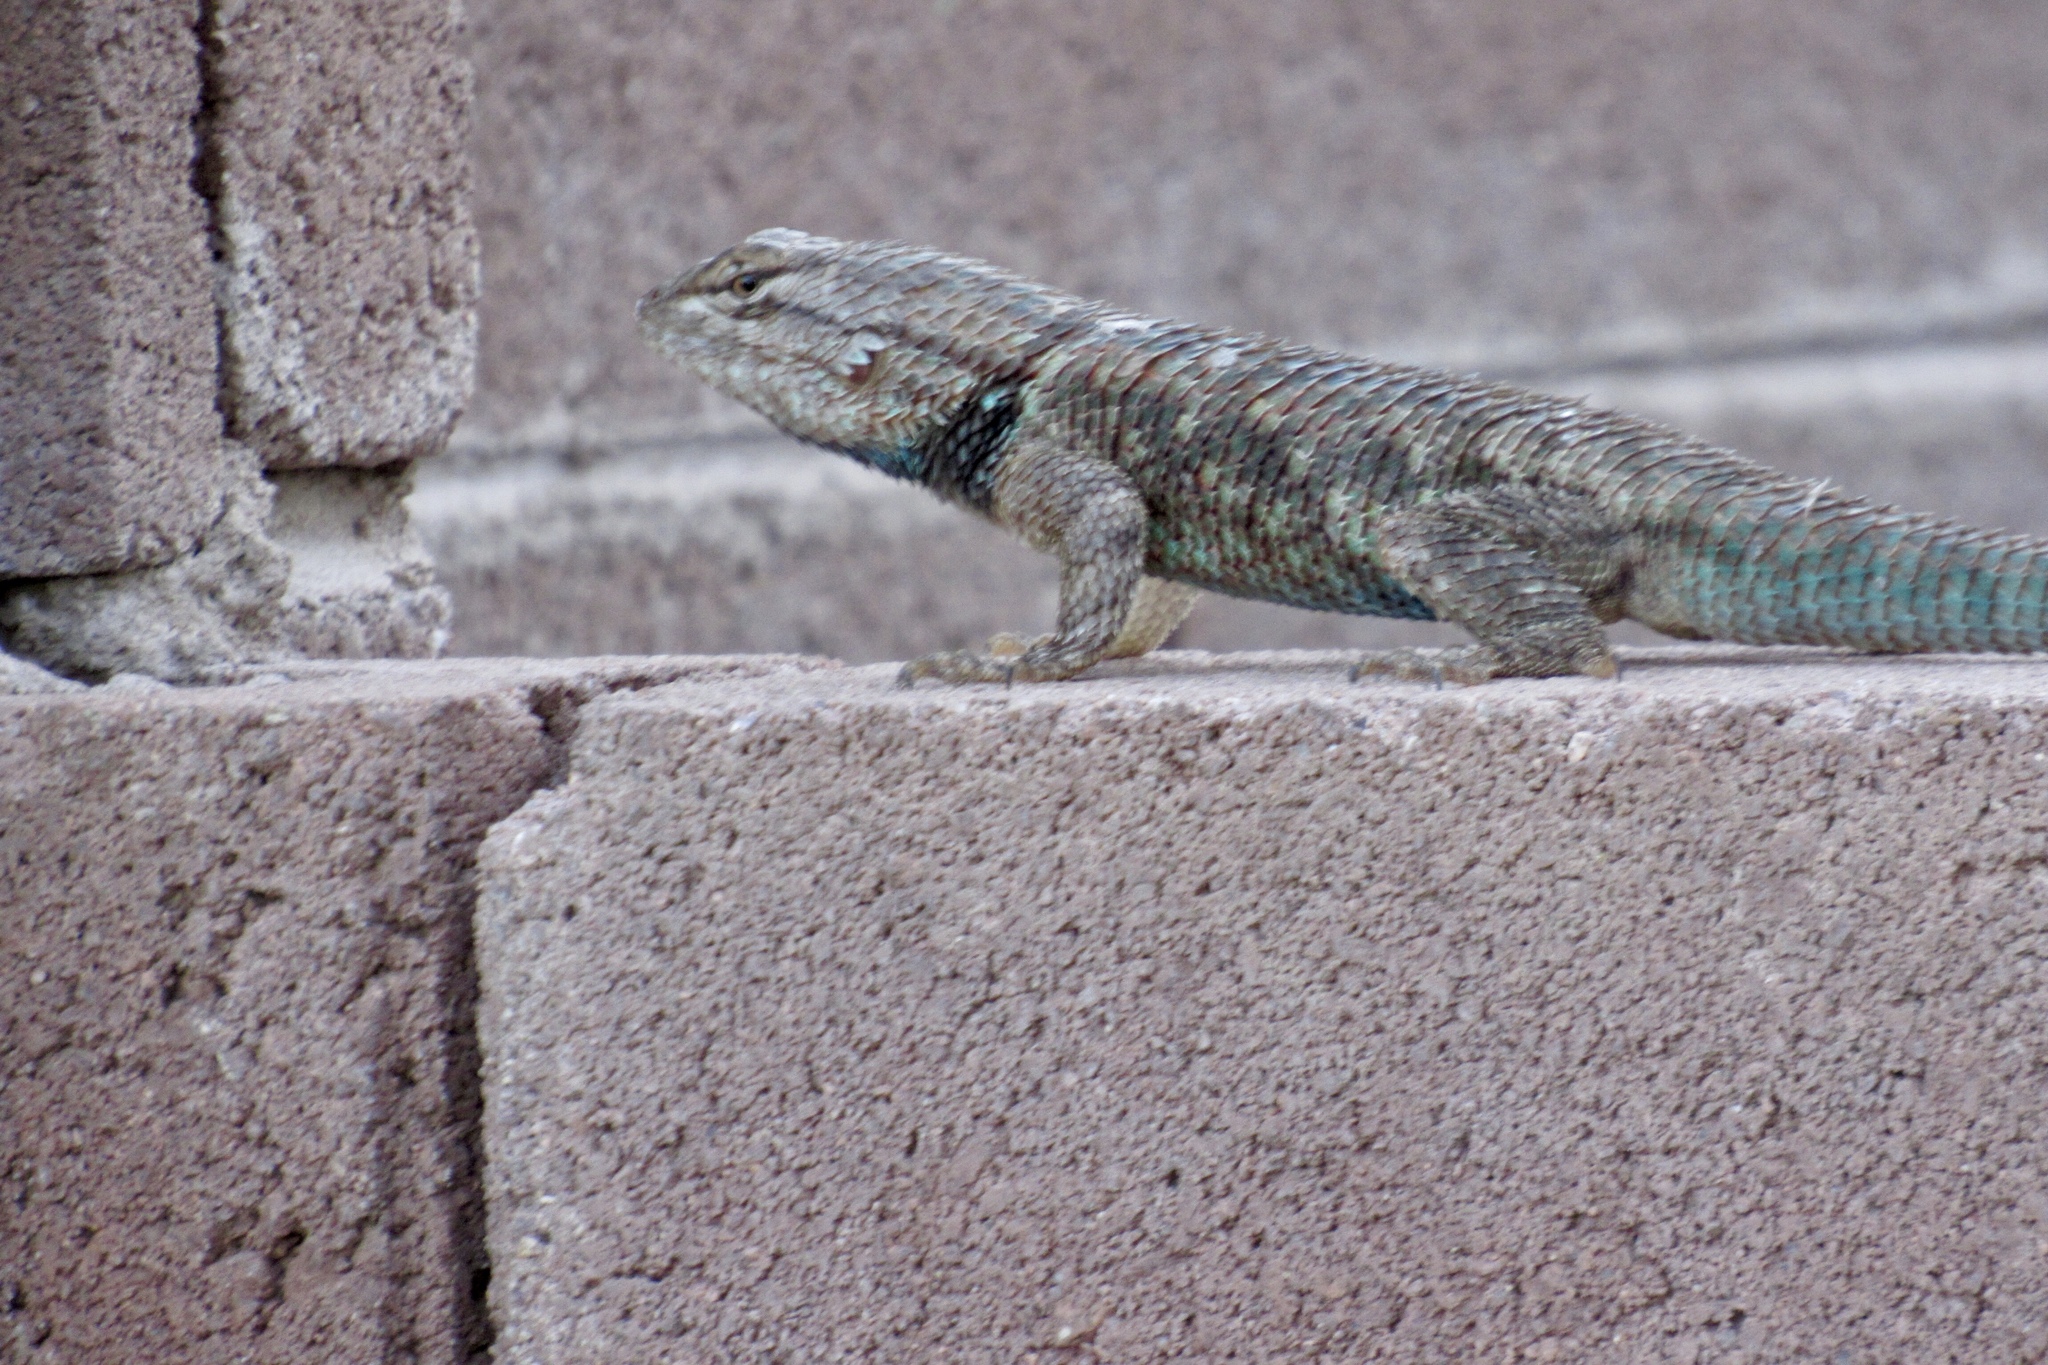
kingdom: Animalia
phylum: Chordata
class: Squamata
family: Phrynosomatidae
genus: Sceloporus
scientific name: Sceloporus magister
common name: Desert spiny lizard
